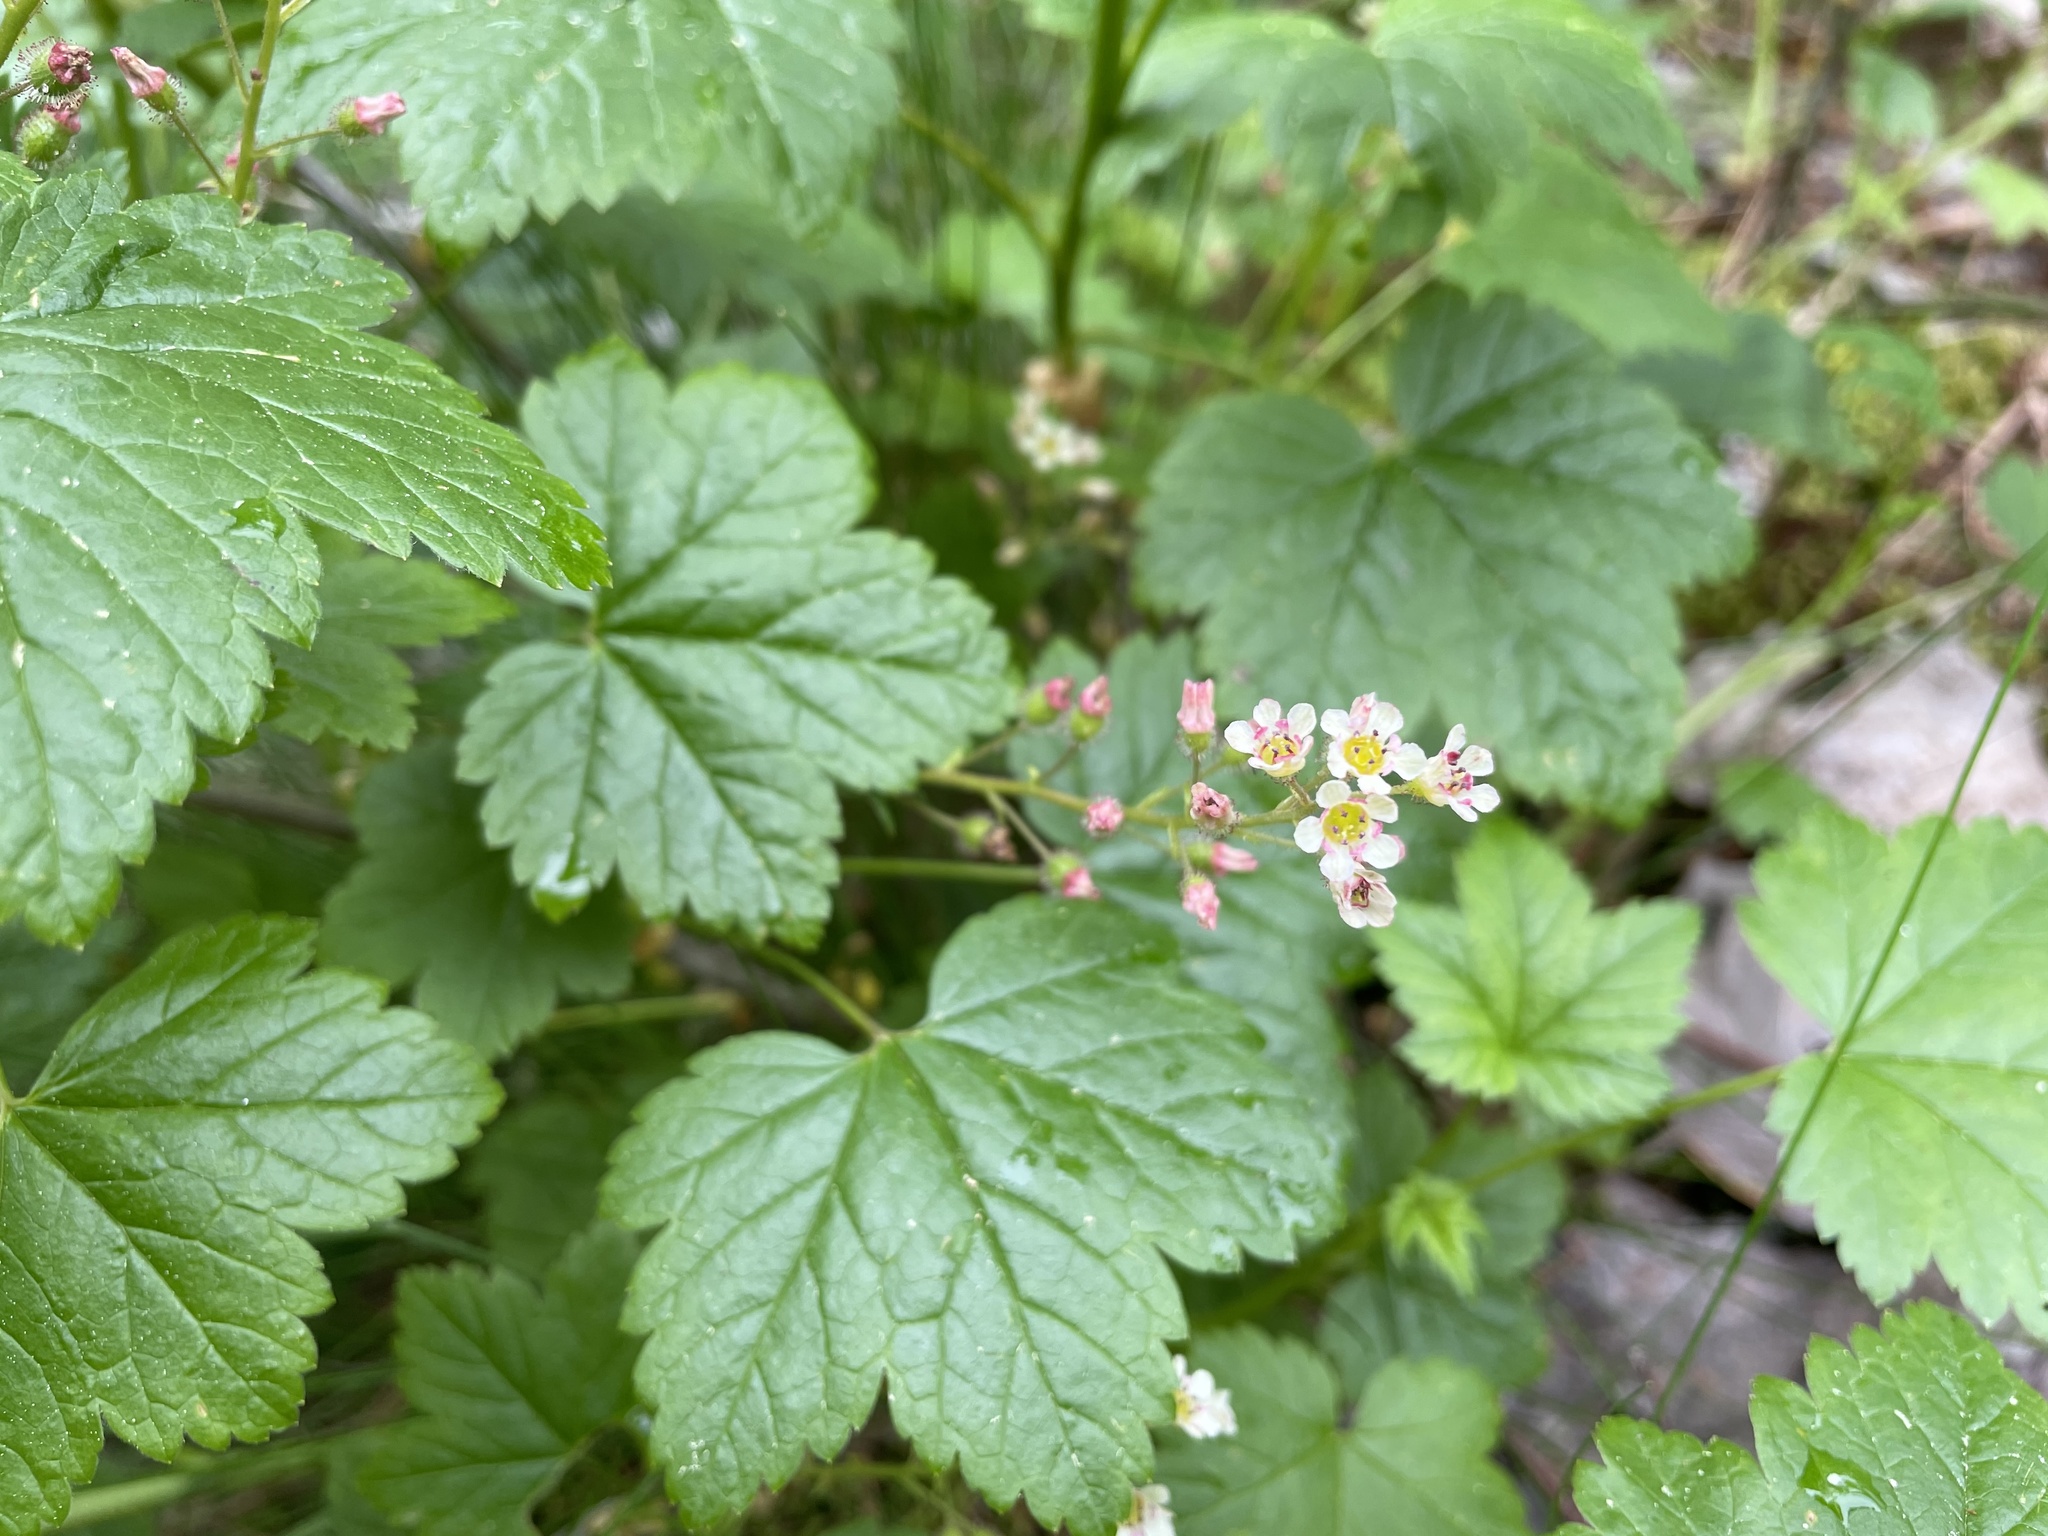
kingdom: Plantae
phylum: Tracheophyta
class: Magnoliopsida
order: Saxifragales
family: Grossulariaceae
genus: Ribes
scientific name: Ribes glandulosum
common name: Skunk currant
